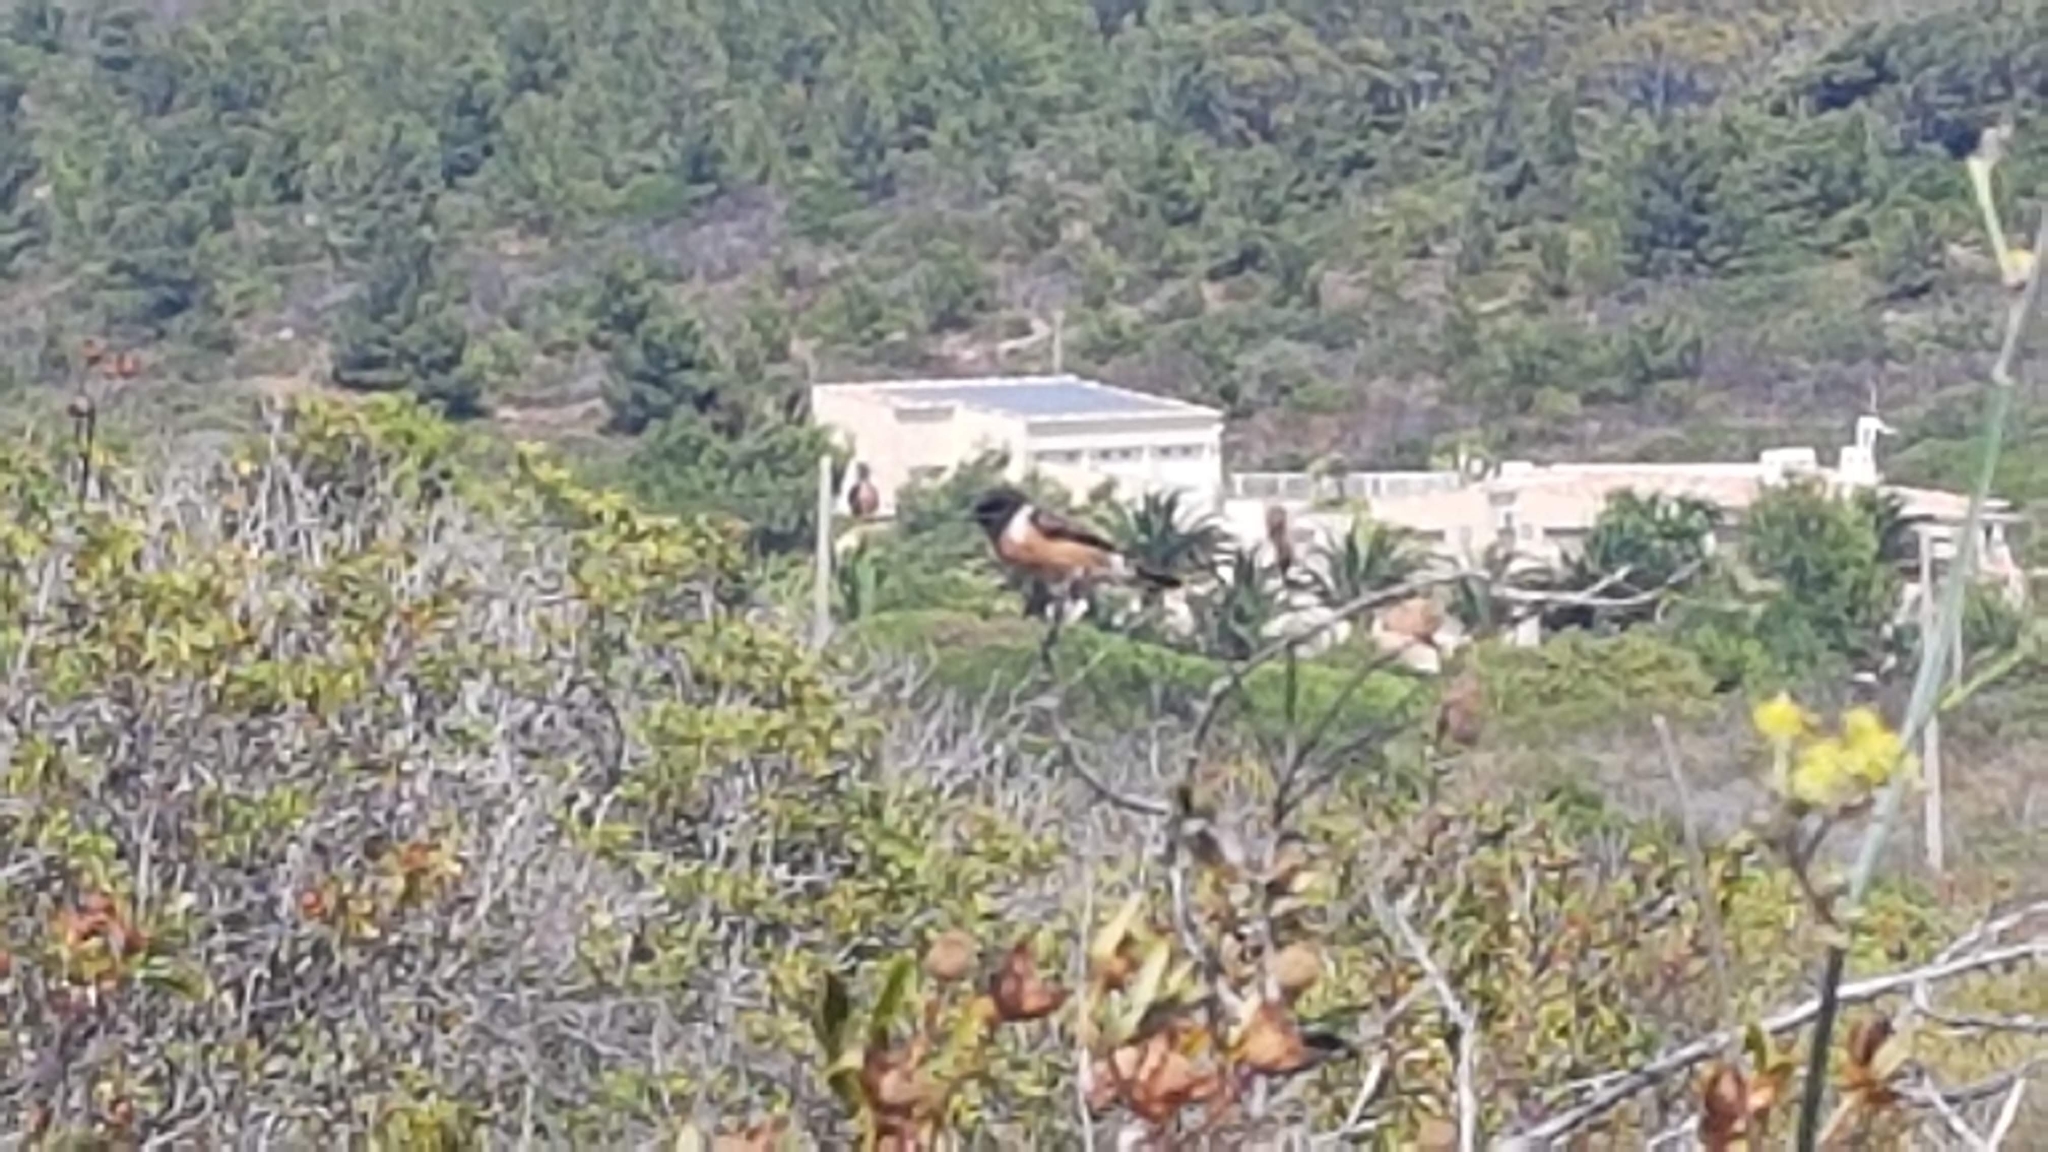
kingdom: Animalia
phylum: Chordata
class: Aves
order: Passeriformes
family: Muscicapidae
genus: Saxicola
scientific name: Saxicola rubicola
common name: European stonechat
